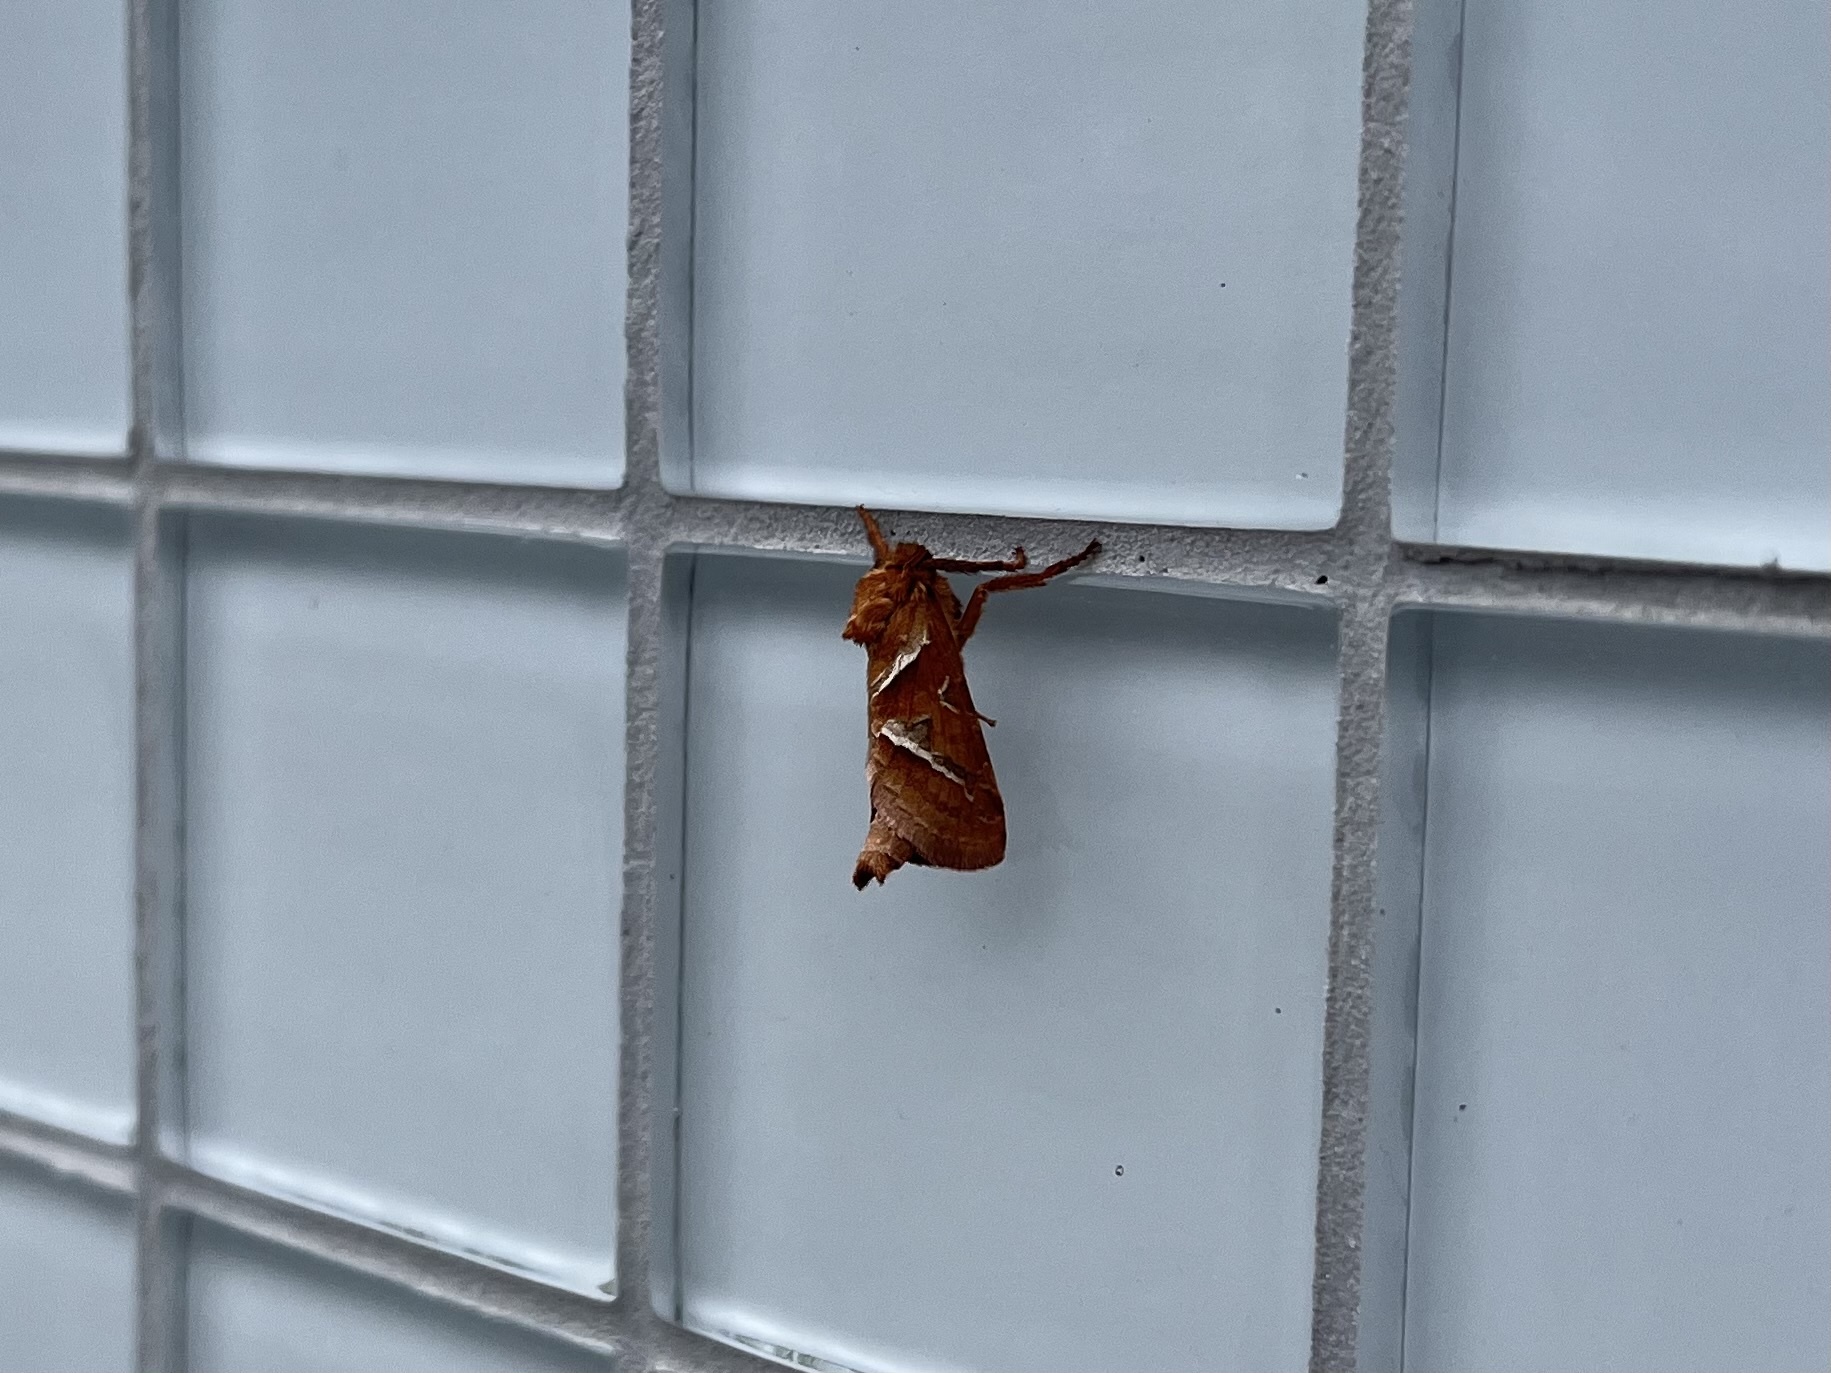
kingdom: Animalia
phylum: Arthropoda
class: Insecta
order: Lepidoptera
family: Hepialidae
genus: Triodia
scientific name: Triodia sylvina
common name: Orange swift
